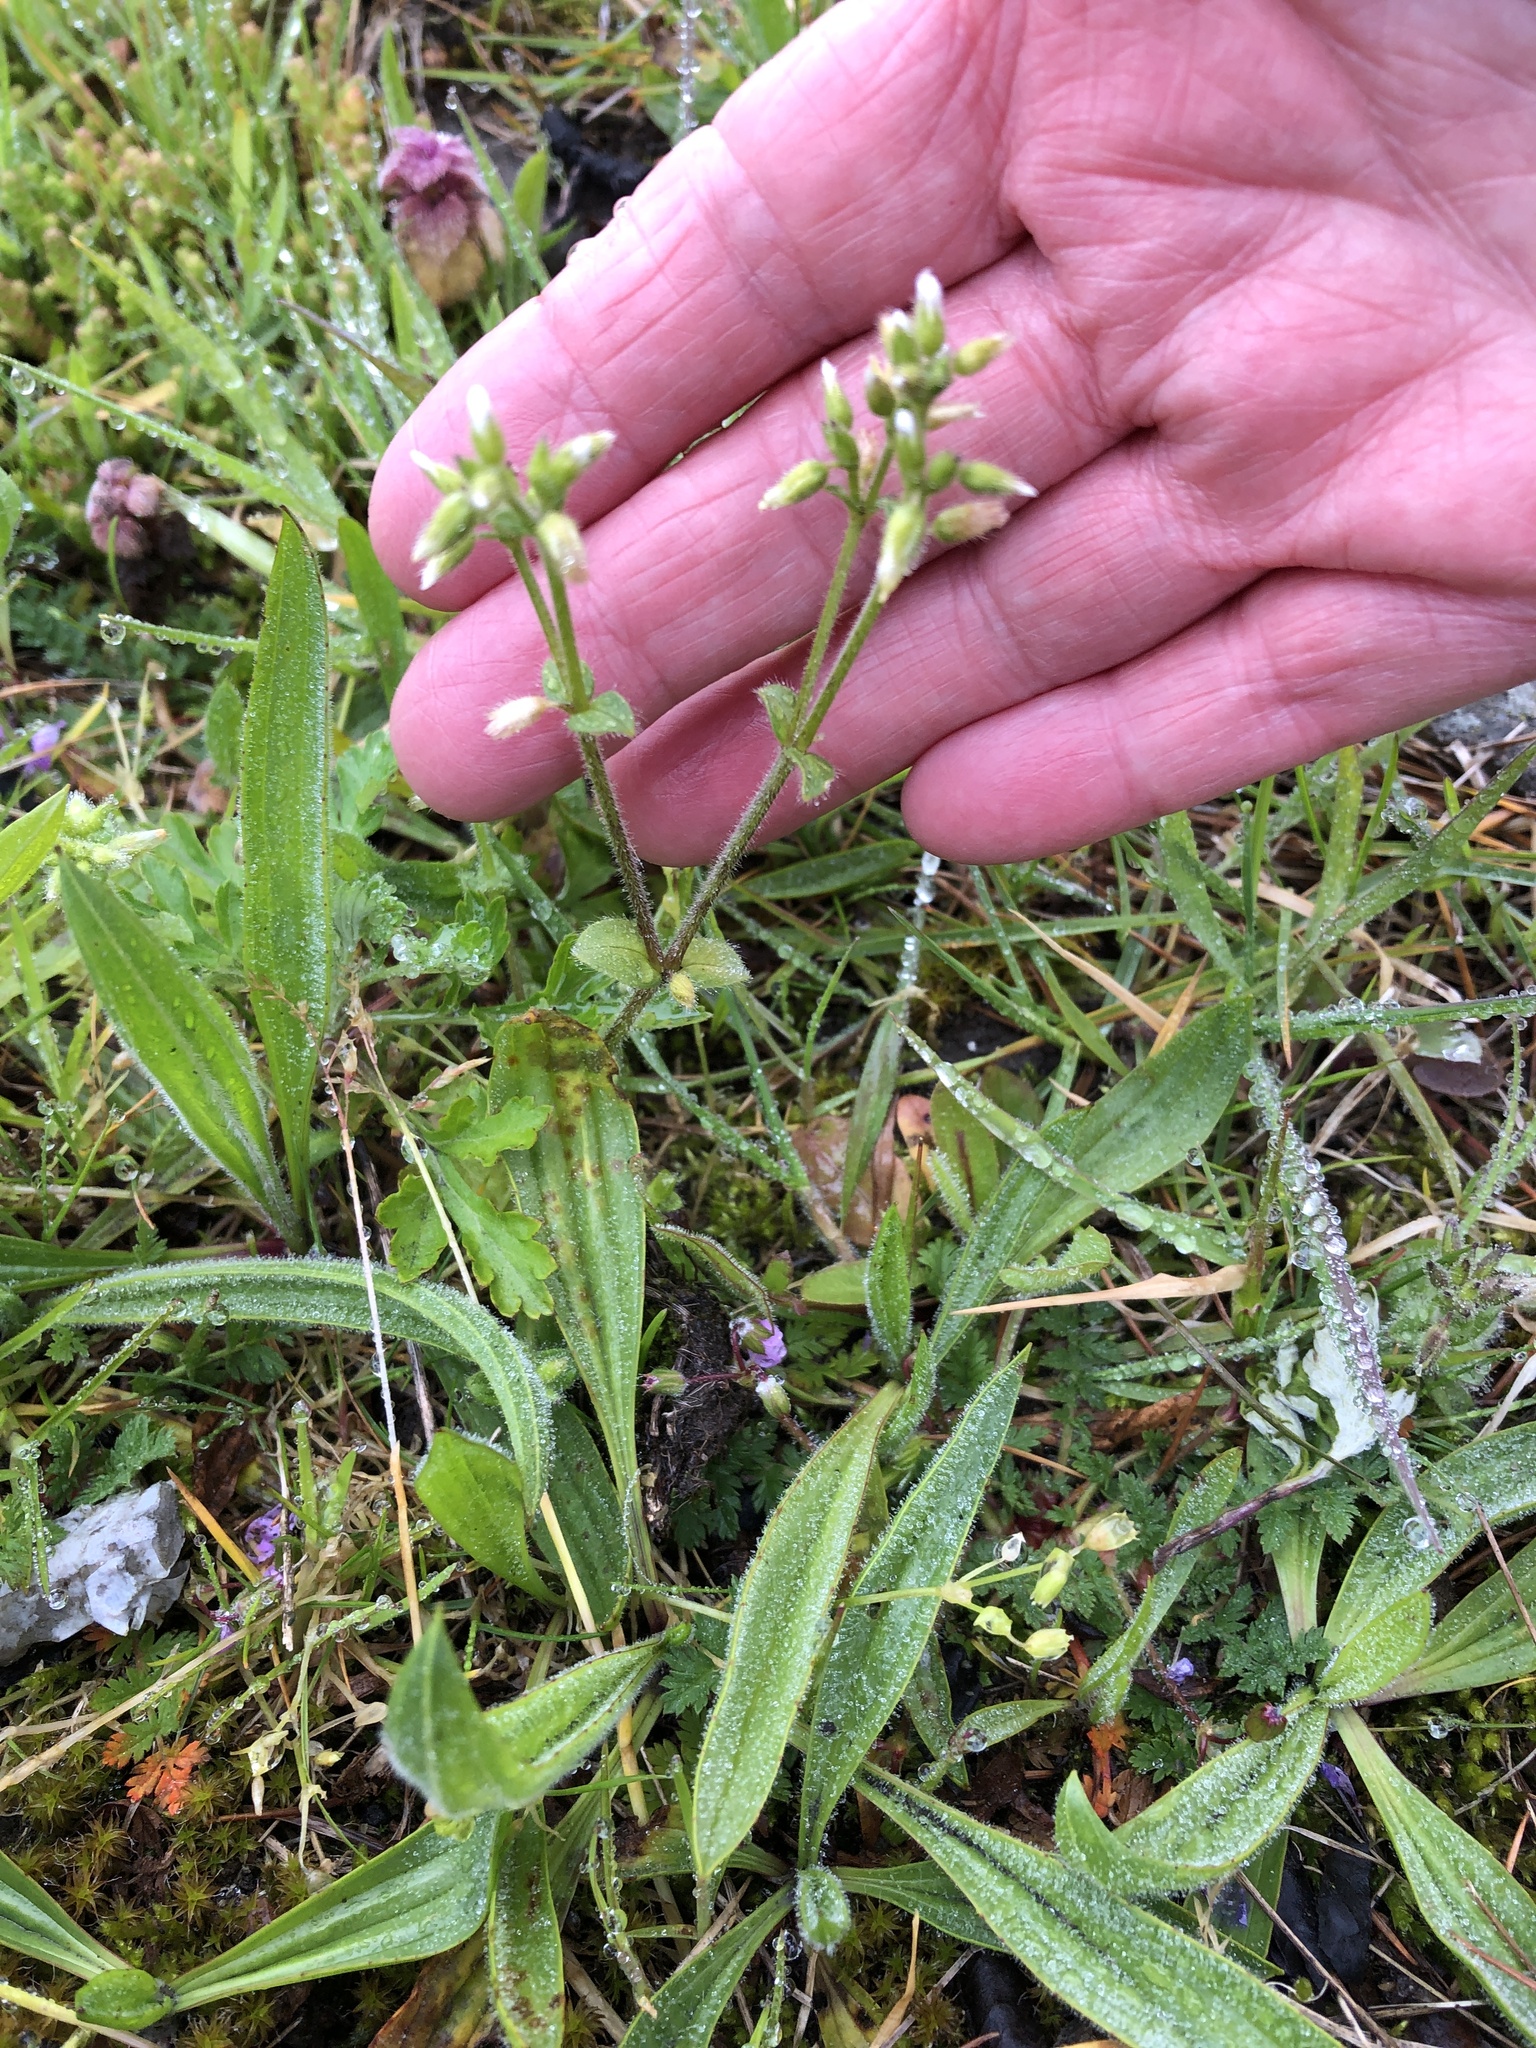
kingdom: Plantae
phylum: Tracheophyta
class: Magnoliopsida
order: Caryophyllales
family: Caryophyllaceae
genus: Cerastium
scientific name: Cerastium glomeratum
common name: Sticky chickweed
